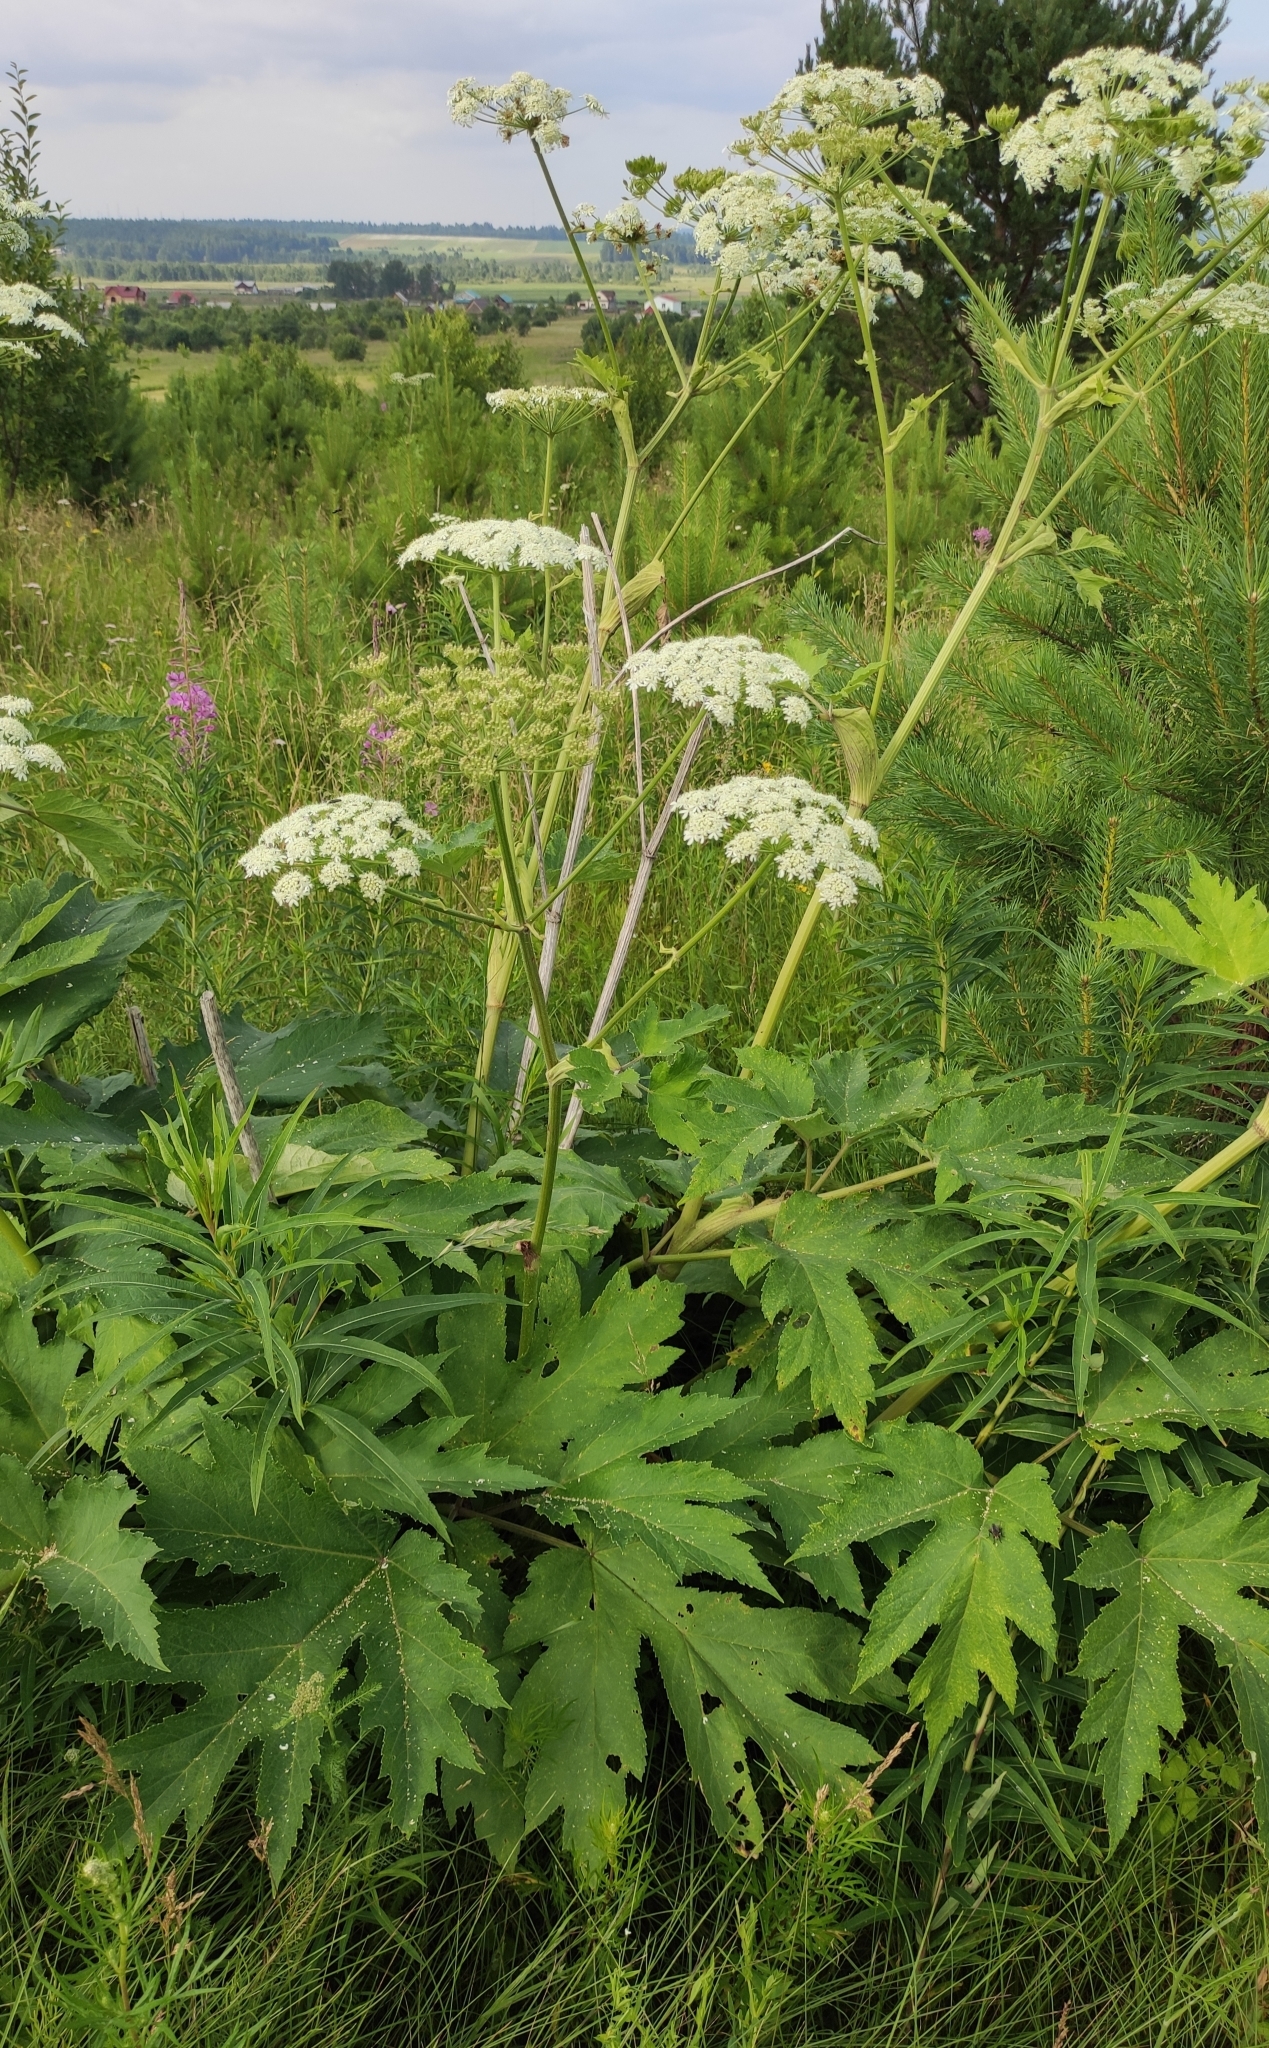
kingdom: Plantae
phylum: Tracheophyta
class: Magnoliopsida
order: Apiales
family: Apiaceae
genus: Heracleum
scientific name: Heracleum dissectum
